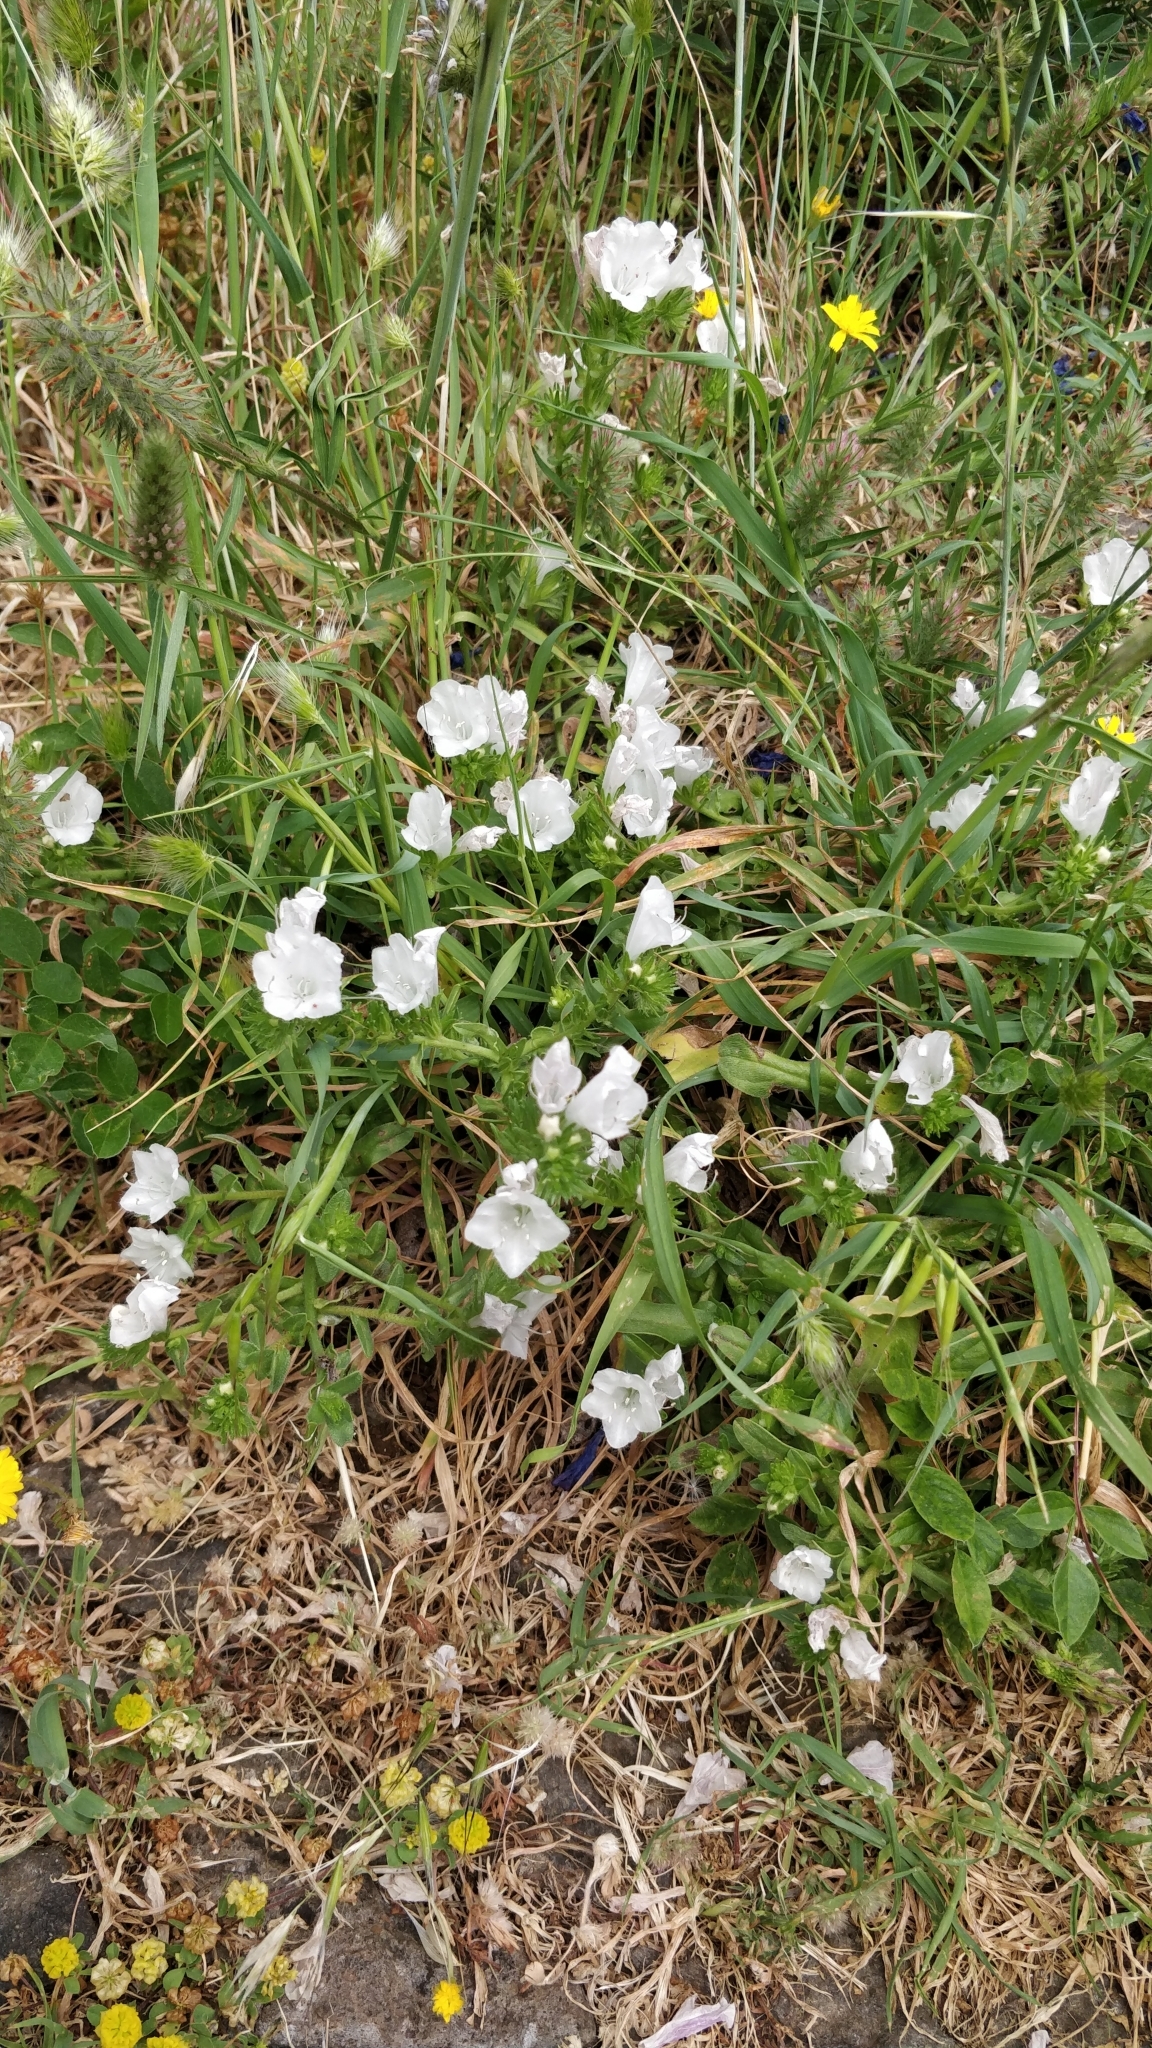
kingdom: Plantae
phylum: Tracheophyta
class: Magnoliopsida
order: Boraginales
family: Boraginaceae
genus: Echium
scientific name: Echium plantagineum
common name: Purple viper's-bugloss
